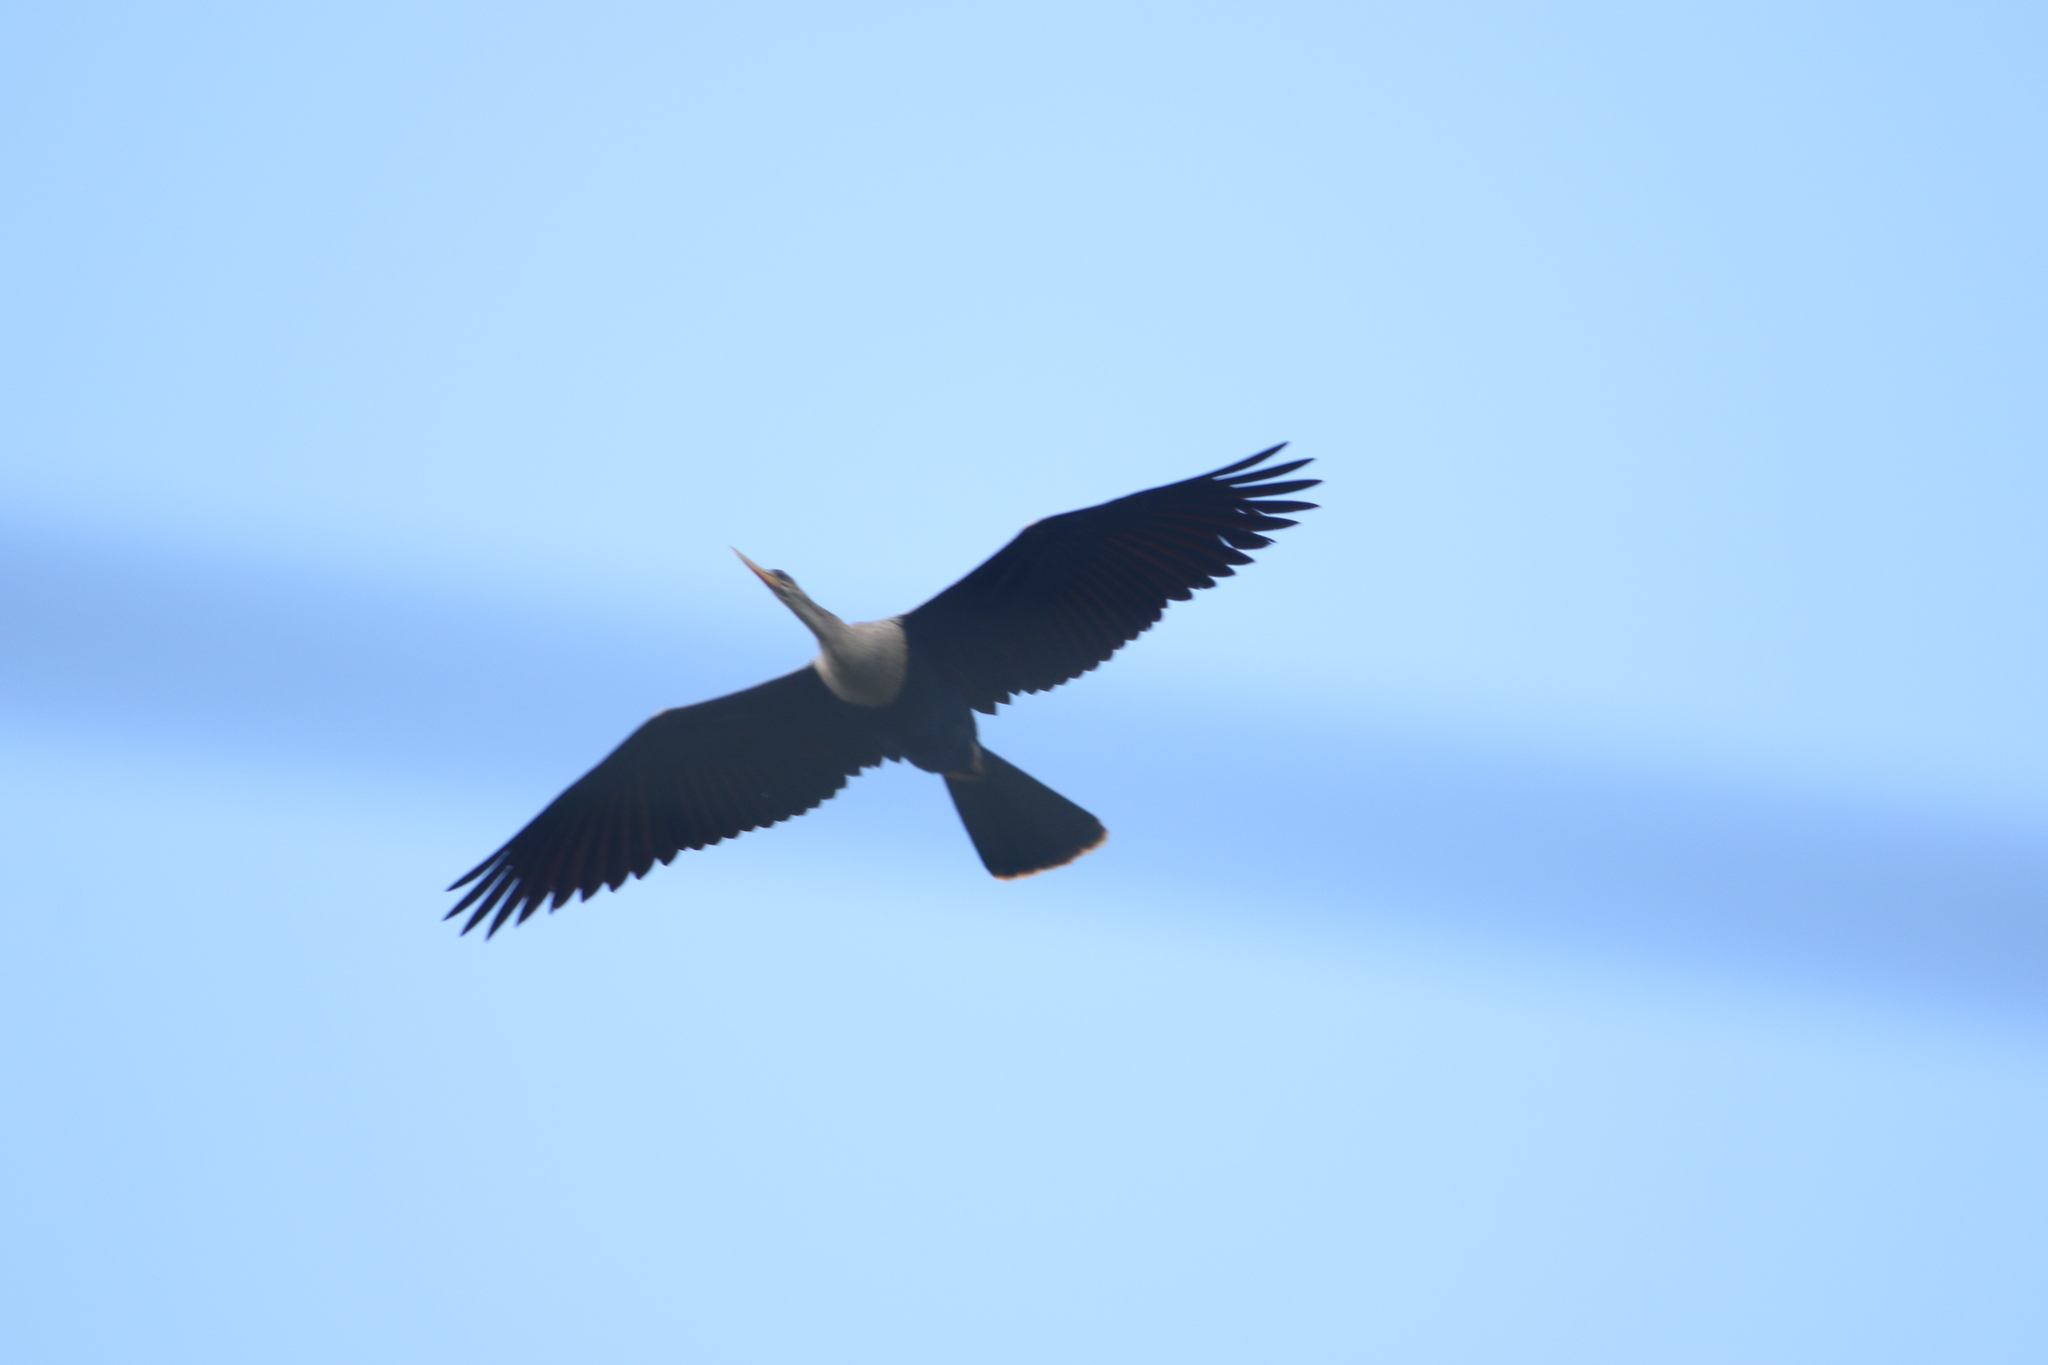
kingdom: Animalia
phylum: Chordata
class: Aves
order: Suliformes
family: Anhingidae
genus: Anhinga
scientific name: Anhinga anhinga
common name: Anhinga
